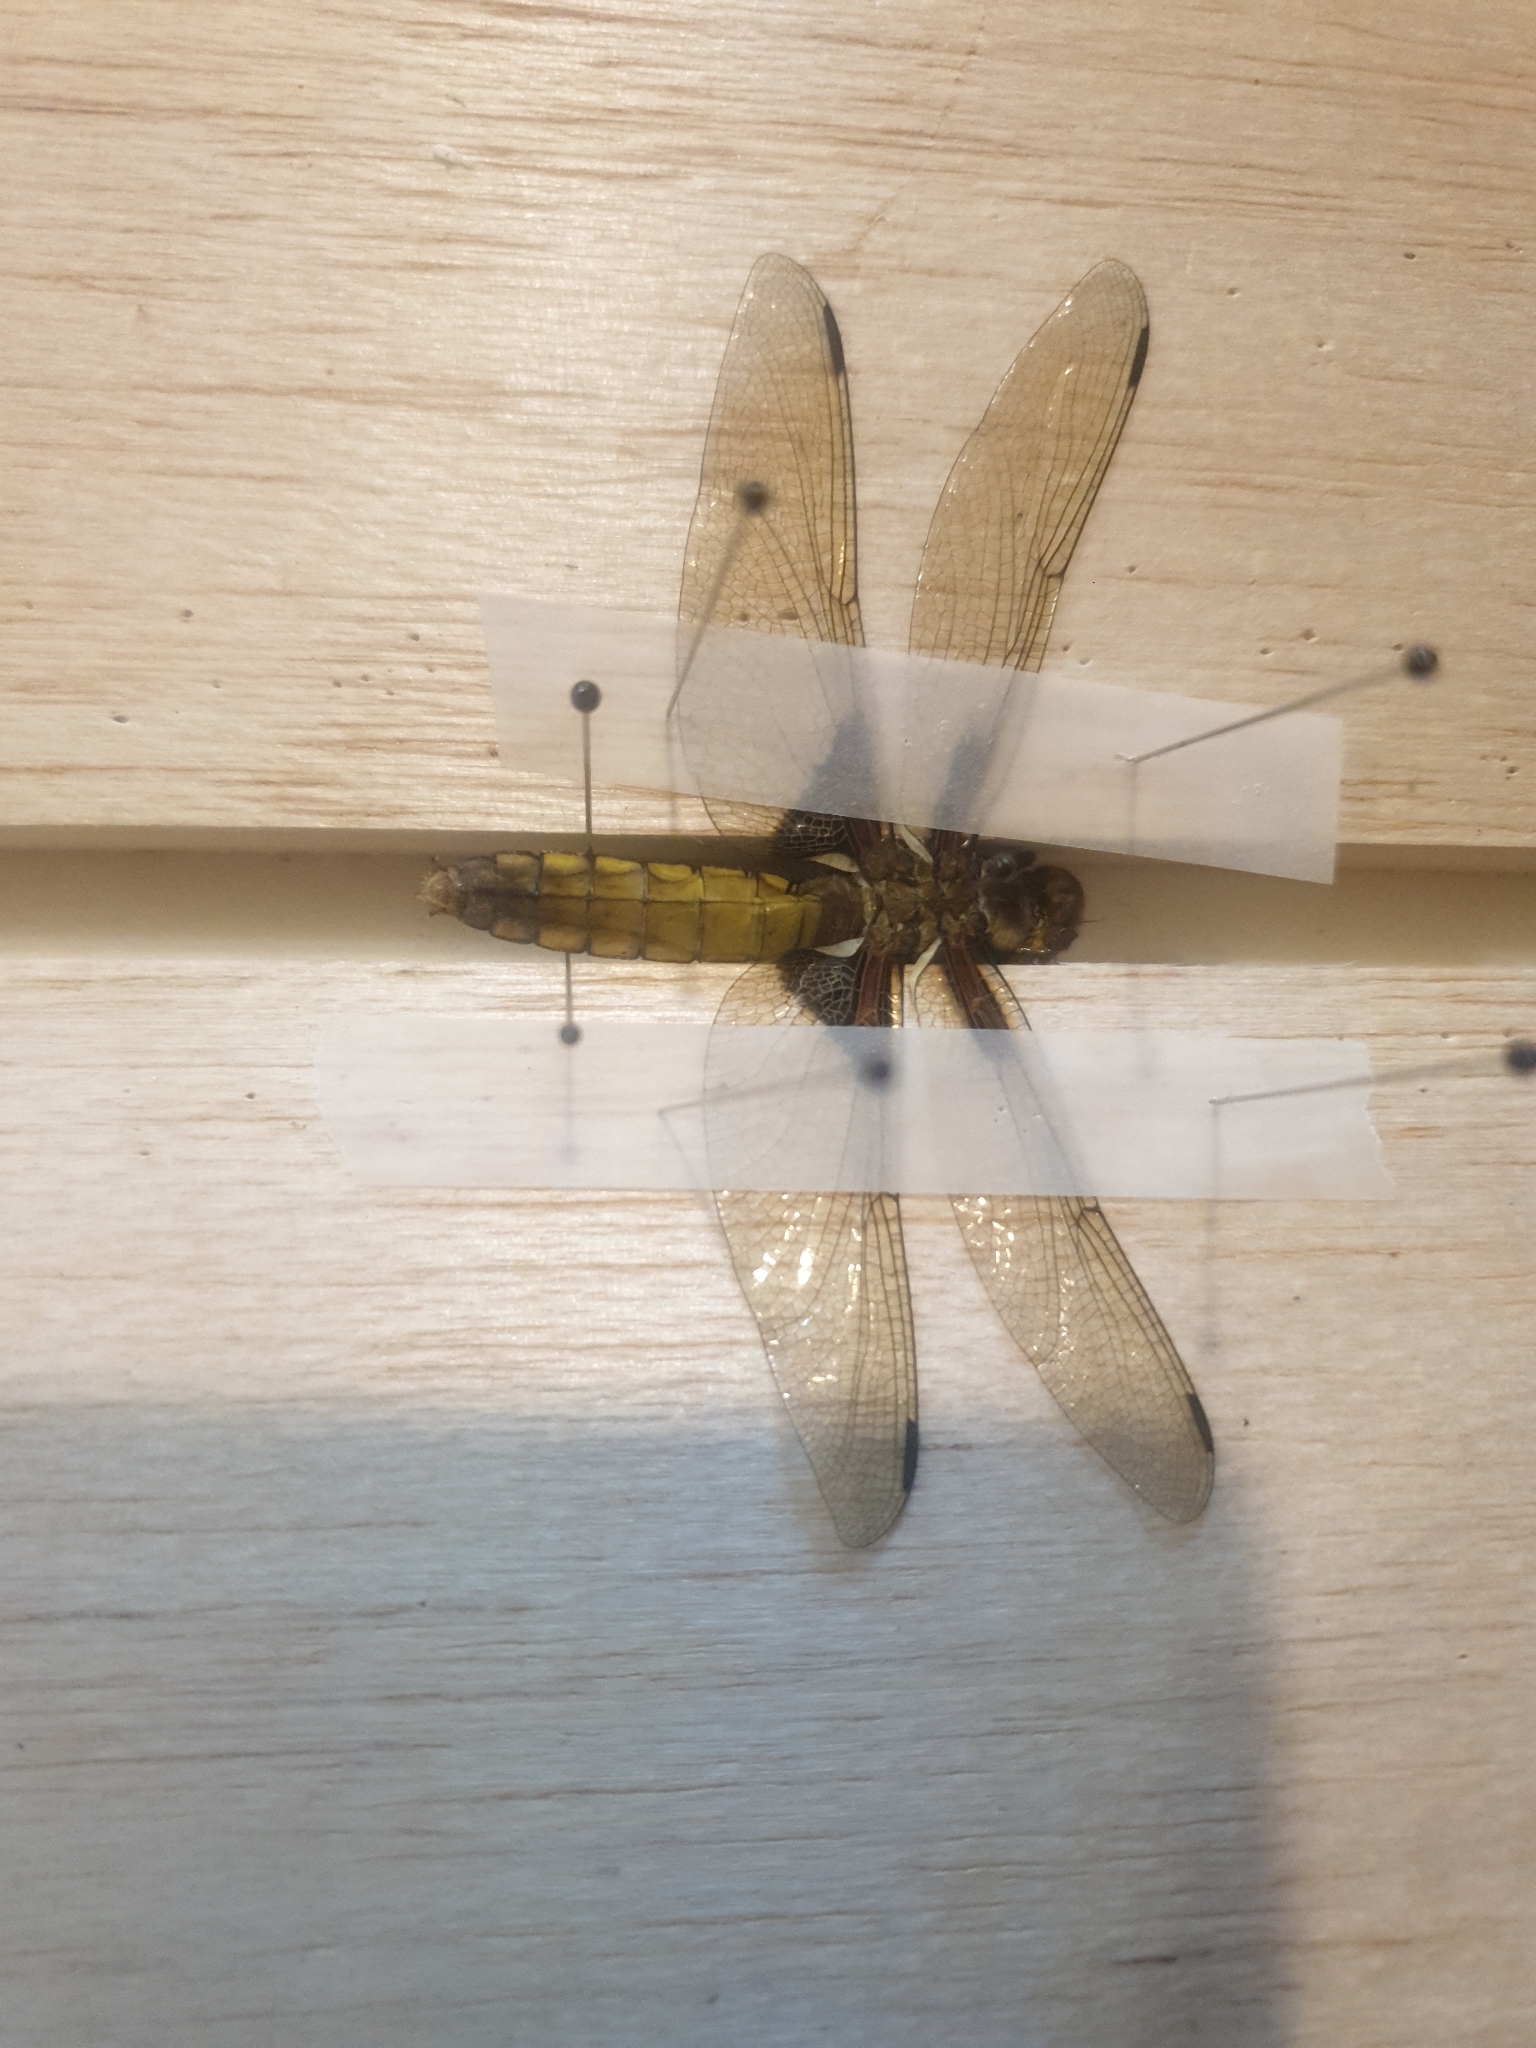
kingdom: Animalia
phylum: Arthropoda
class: Insecta
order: Odonata
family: Libellulidae
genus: Libellula
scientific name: Libellula depressa
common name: Broad-bodied chaser
